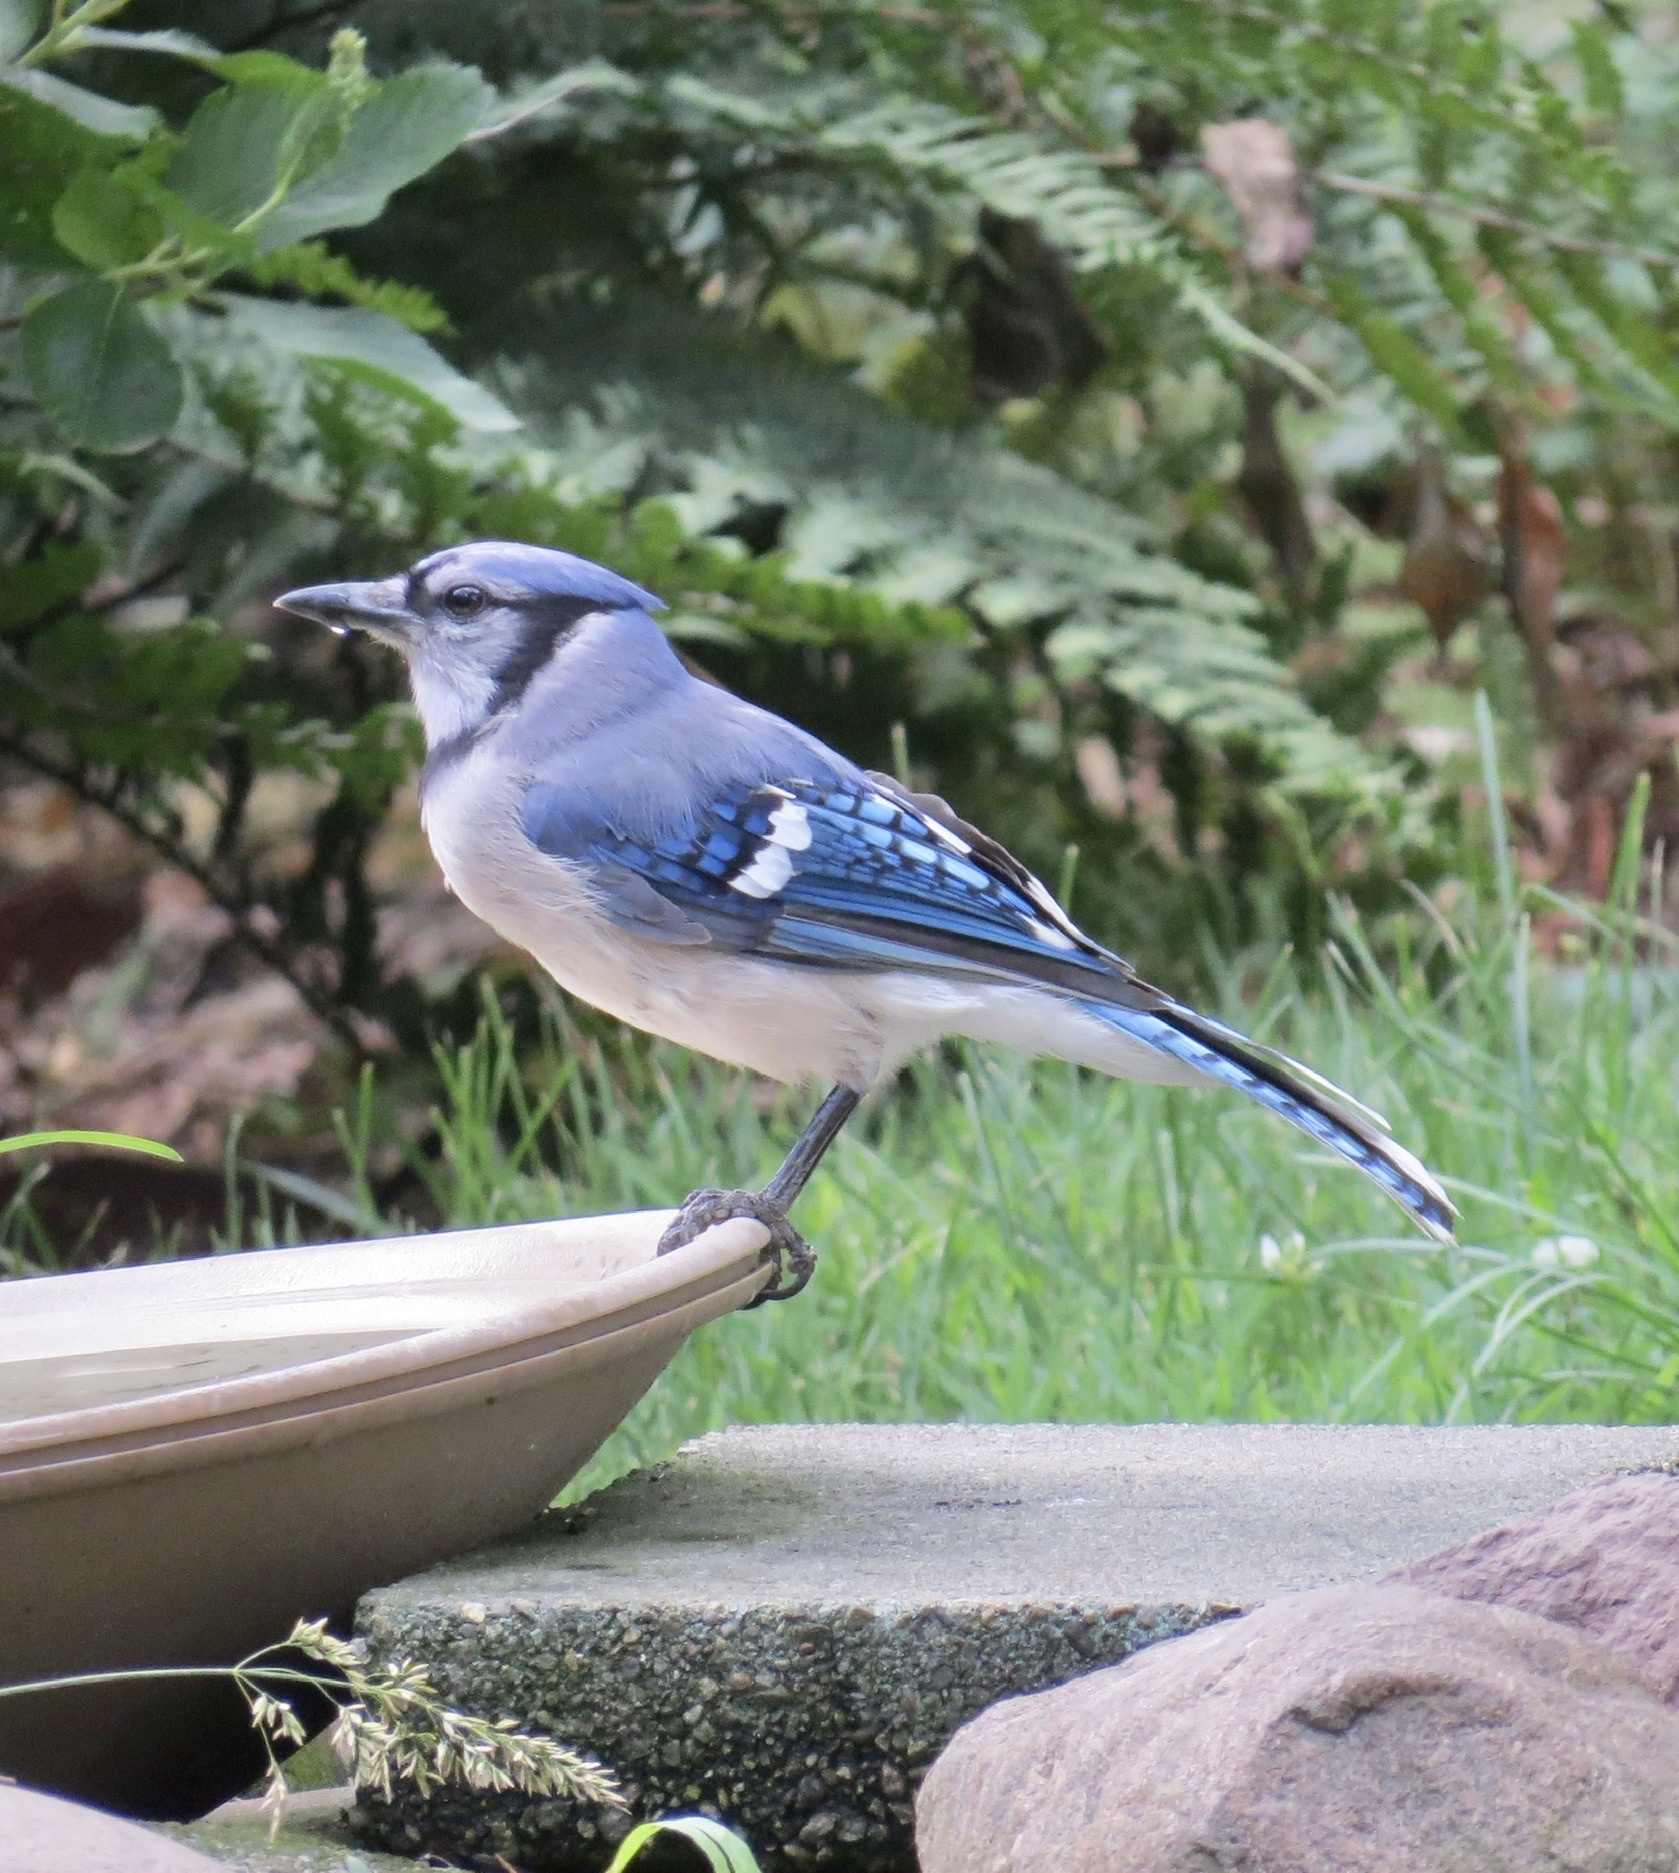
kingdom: Animalia
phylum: Chordata
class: Aves
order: Passeriformes
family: Corvidae
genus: Cyanocitta
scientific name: Cyanocitta cristata
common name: Blue jay
